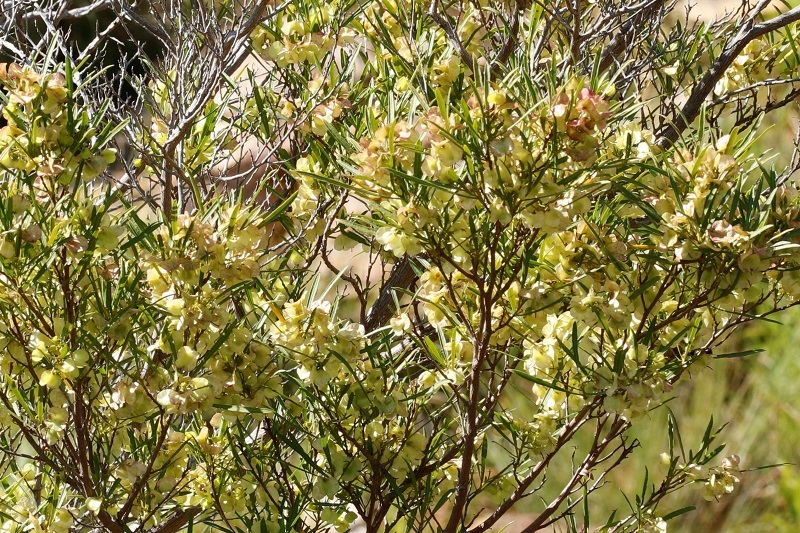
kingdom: Plantae
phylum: Tracheophyta
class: Magnoliopsida
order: Sapindales
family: Sapindaceae
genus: Dodonaea
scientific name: Dodonaea viscosa
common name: Hopbush
